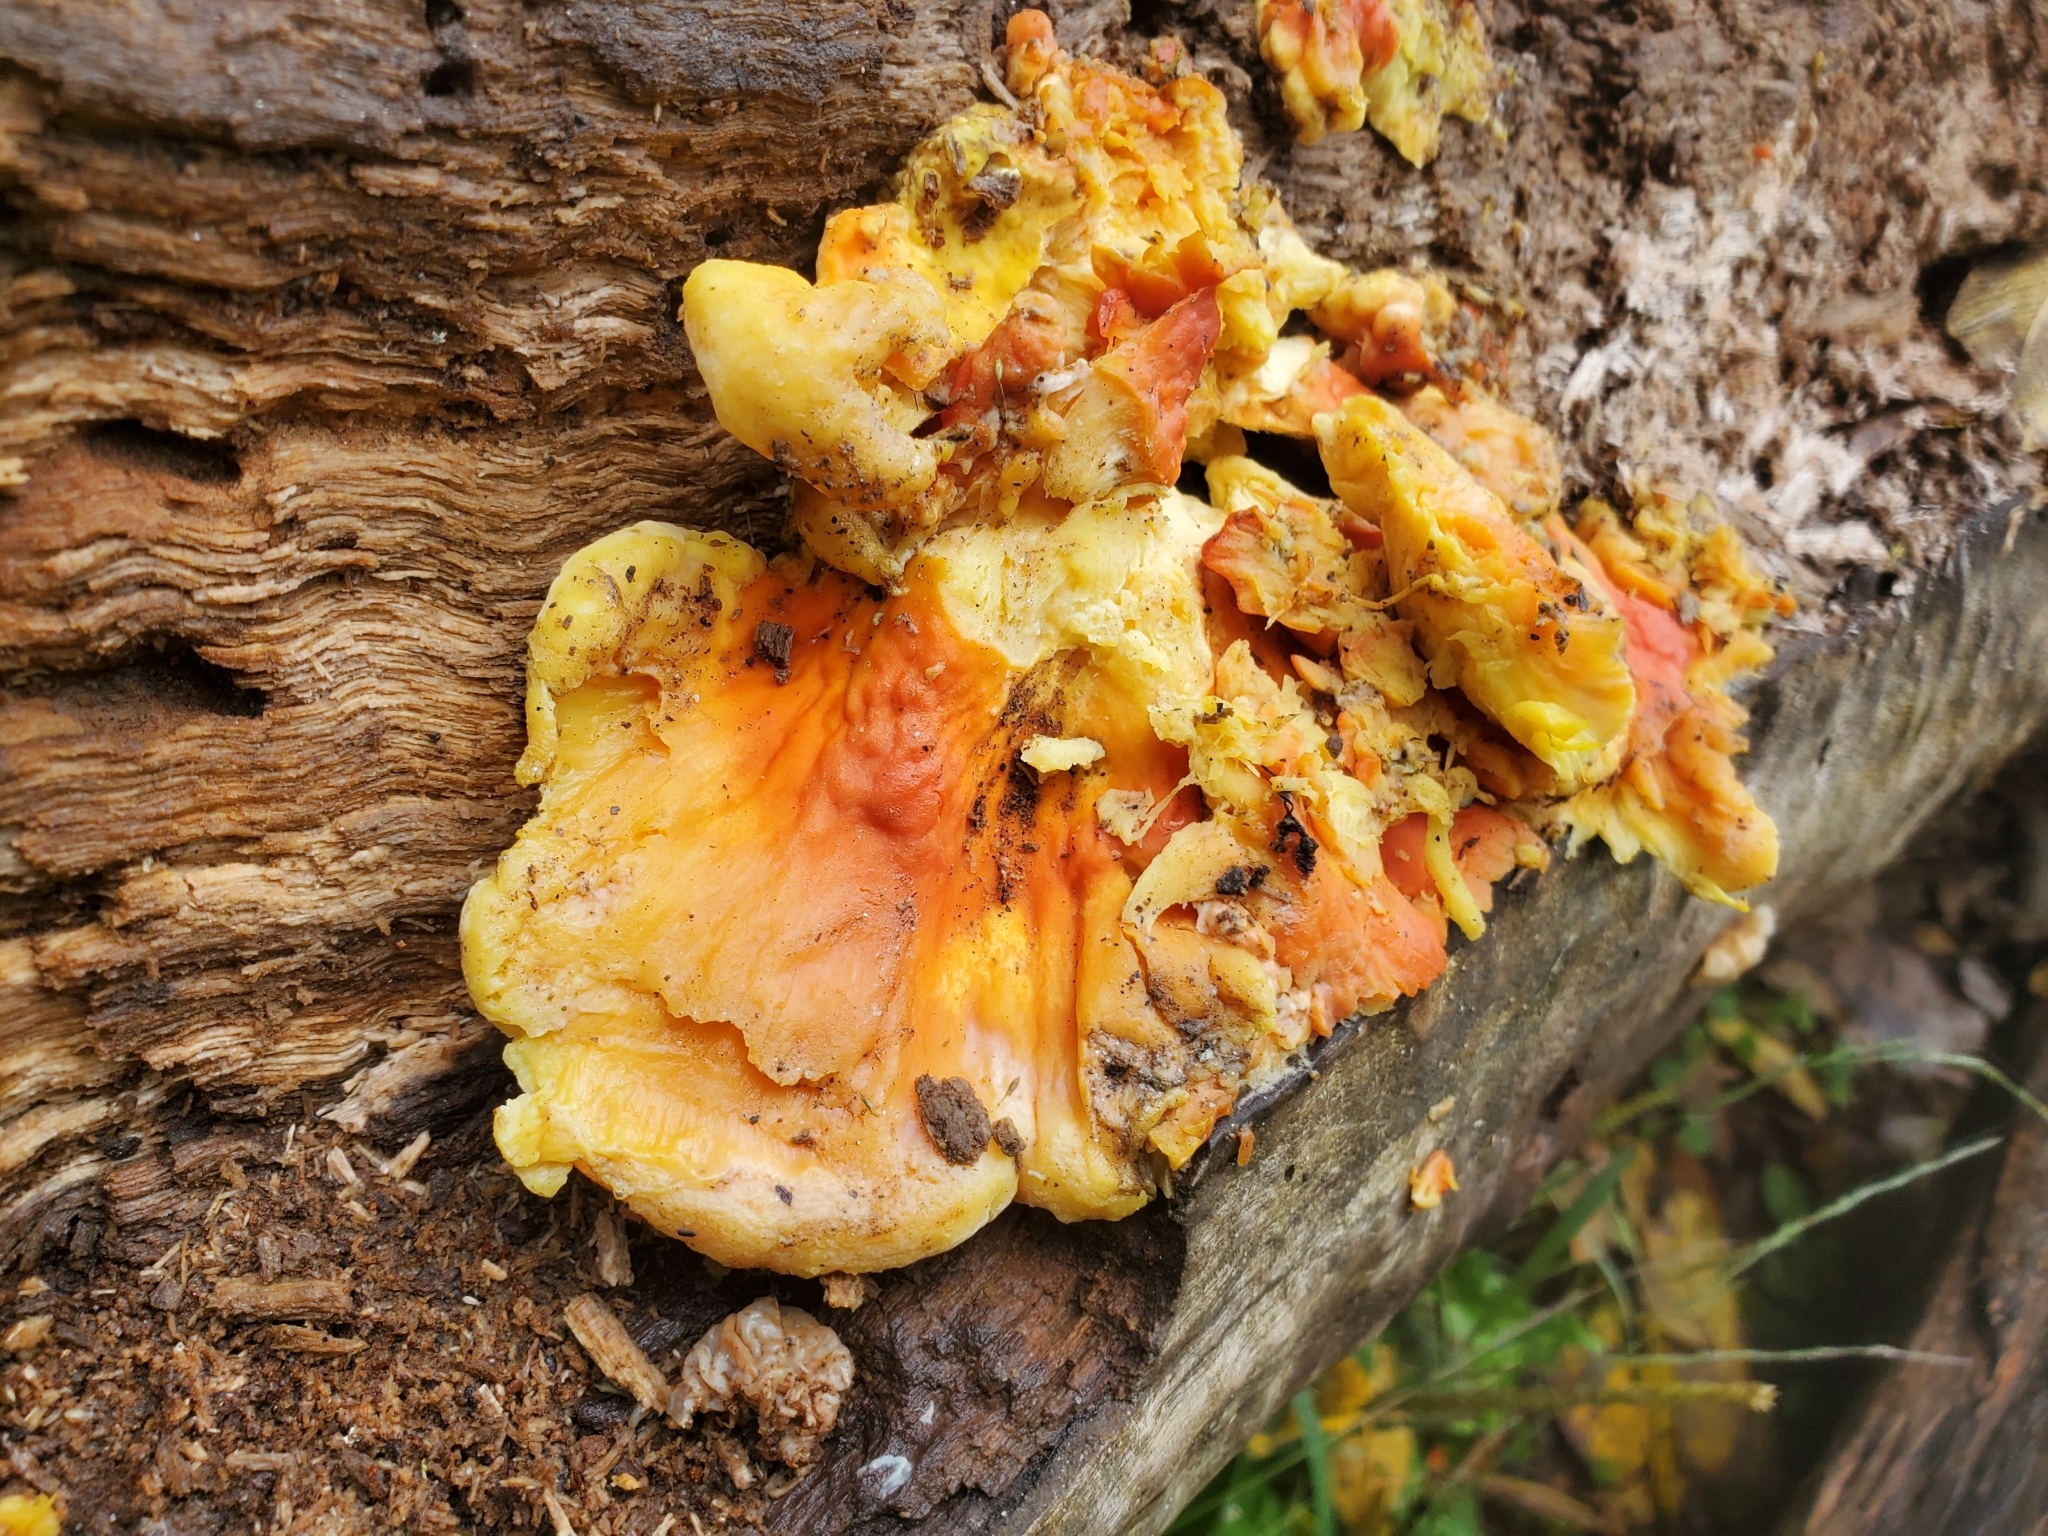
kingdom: Fungi
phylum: Basidiomycota
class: Agaricomycetes
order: Polyporales
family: Laetiporaceae
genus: Laetiporus
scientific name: Laetiporus sulphureus
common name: Chicken of the woods
